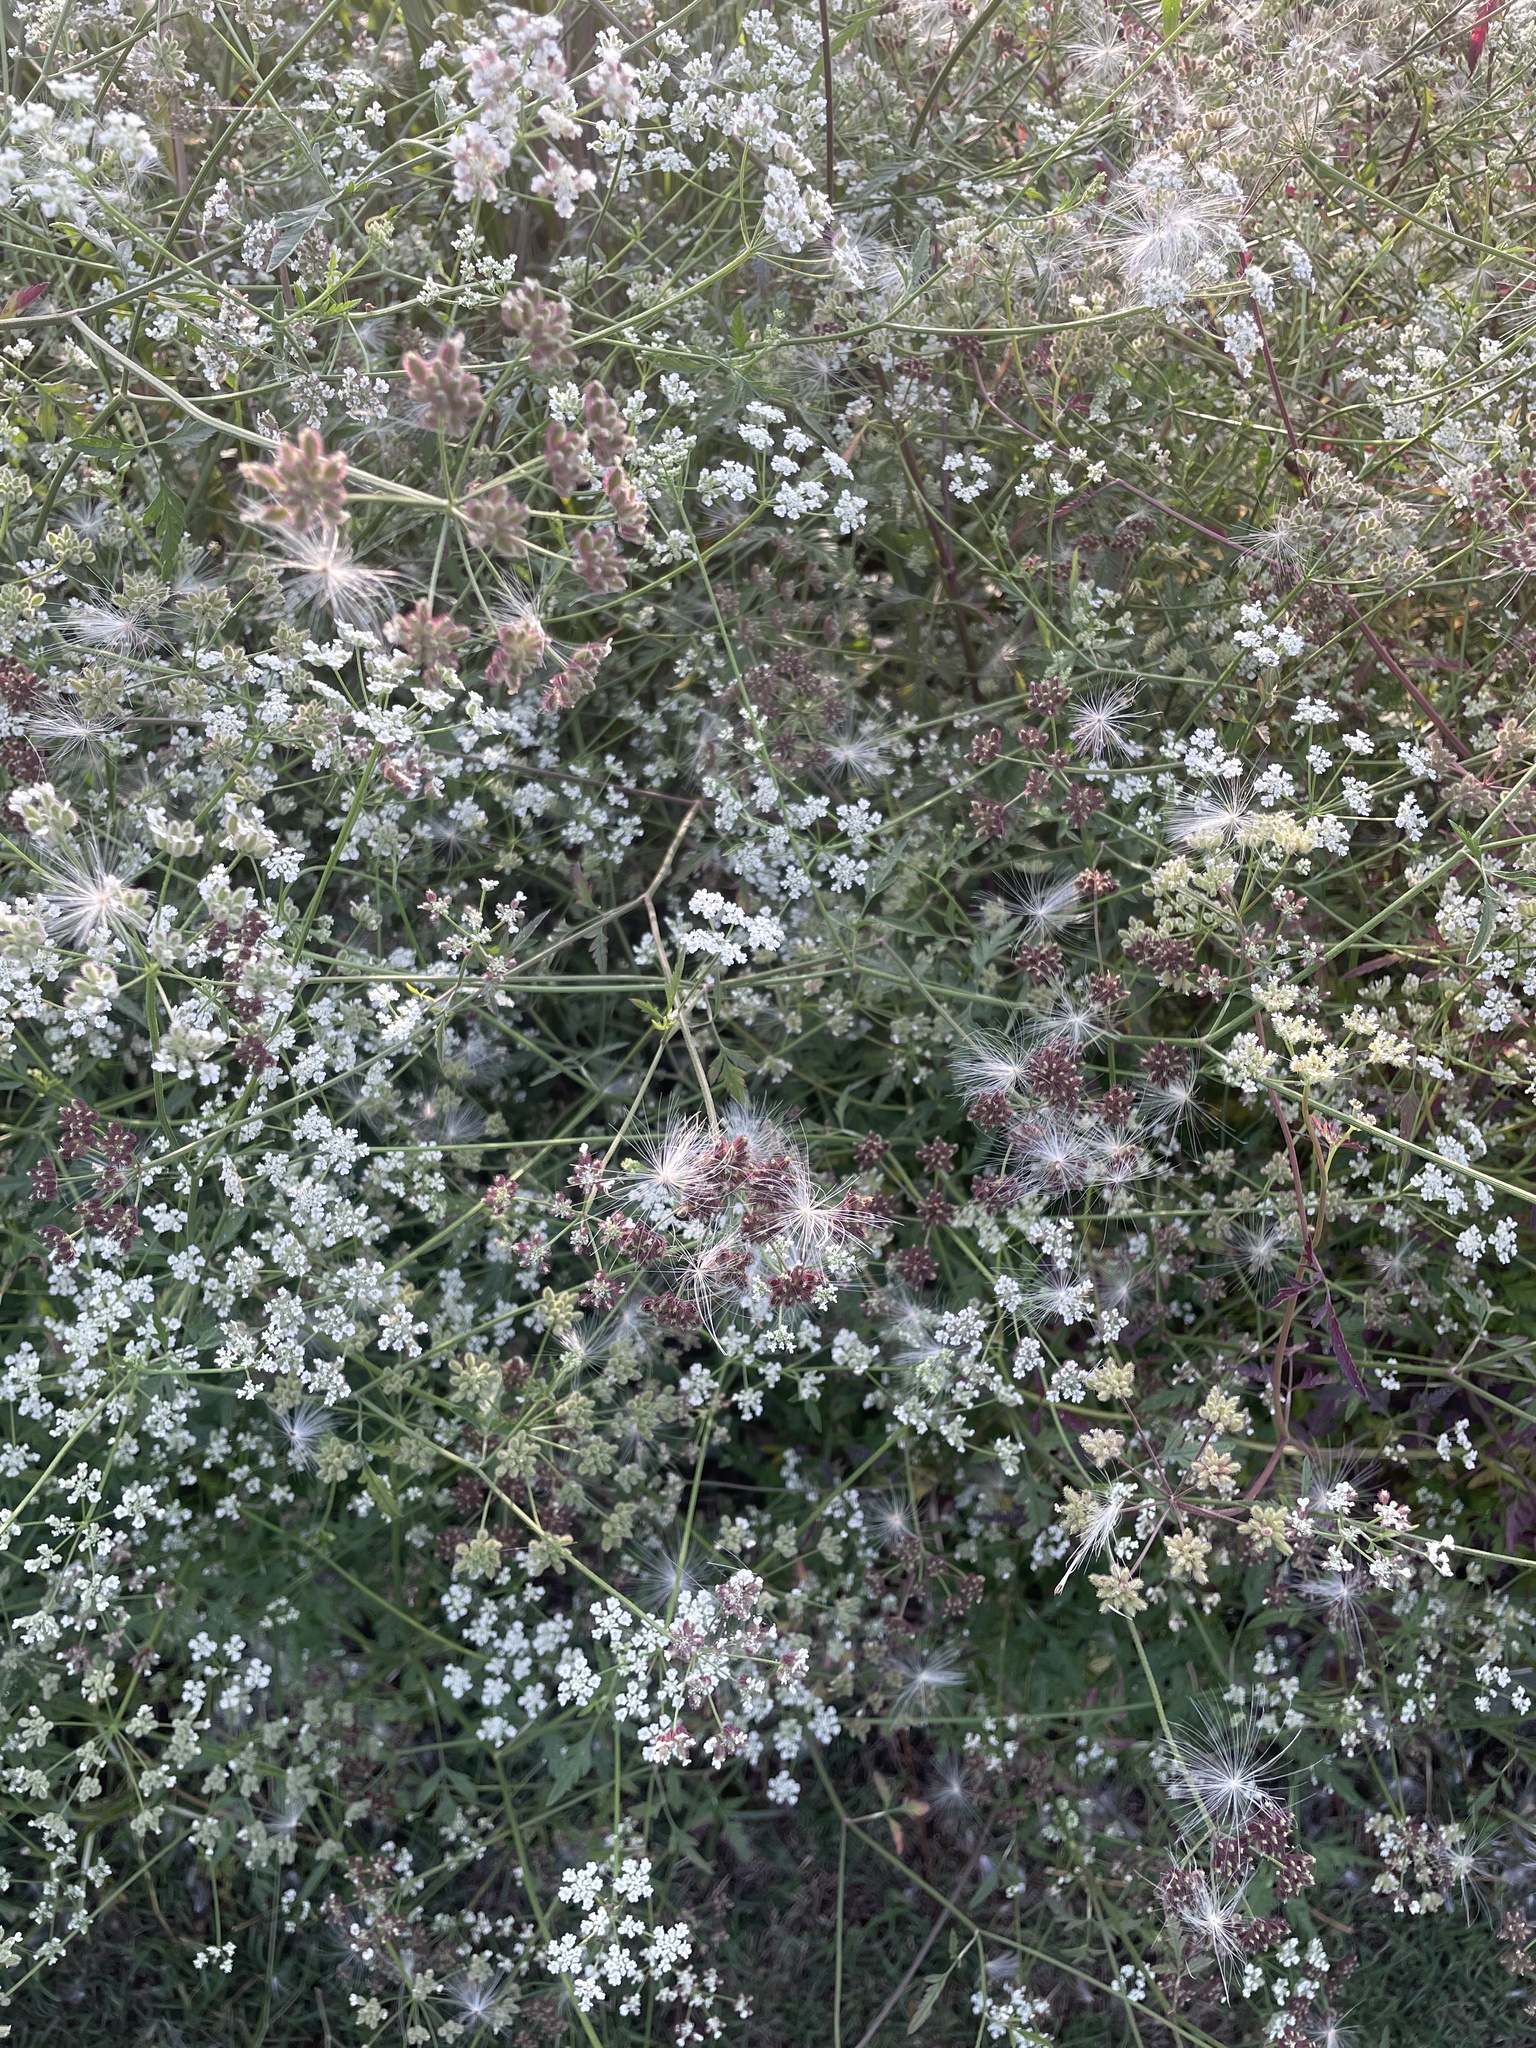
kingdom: Plantae
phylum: Tracheophyta
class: Magnoliopsida
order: Apiales
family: Apiaceae
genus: Torilis
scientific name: Torilis arvensis
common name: Spreading hedge-parsley
